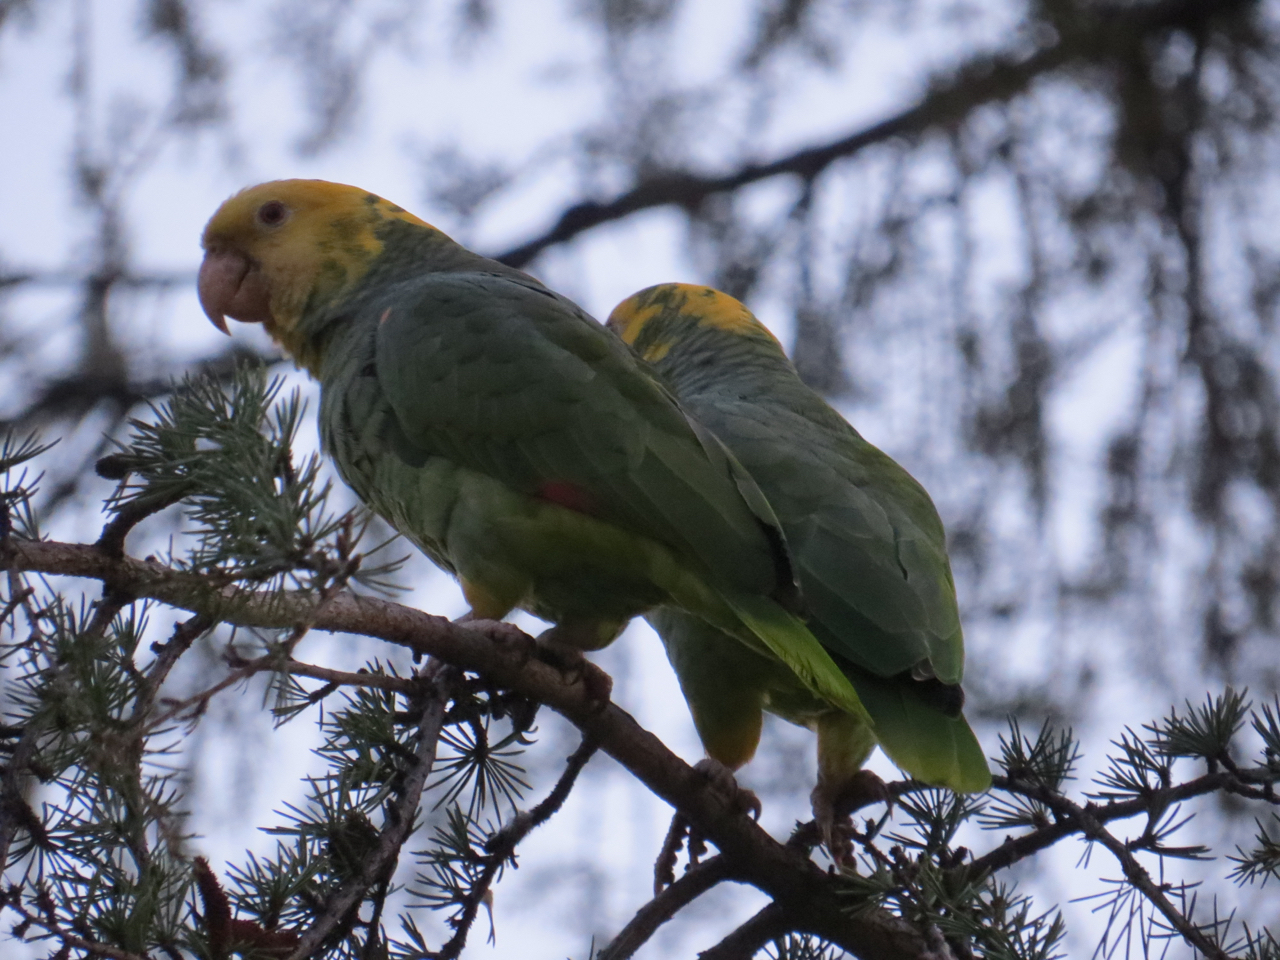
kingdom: Animalia
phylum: Chordata
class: Aves
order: Psittaciformes
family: Psittacidae
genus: Amazona
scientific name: Amazona oratrix
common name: Yellow-headed amazon
